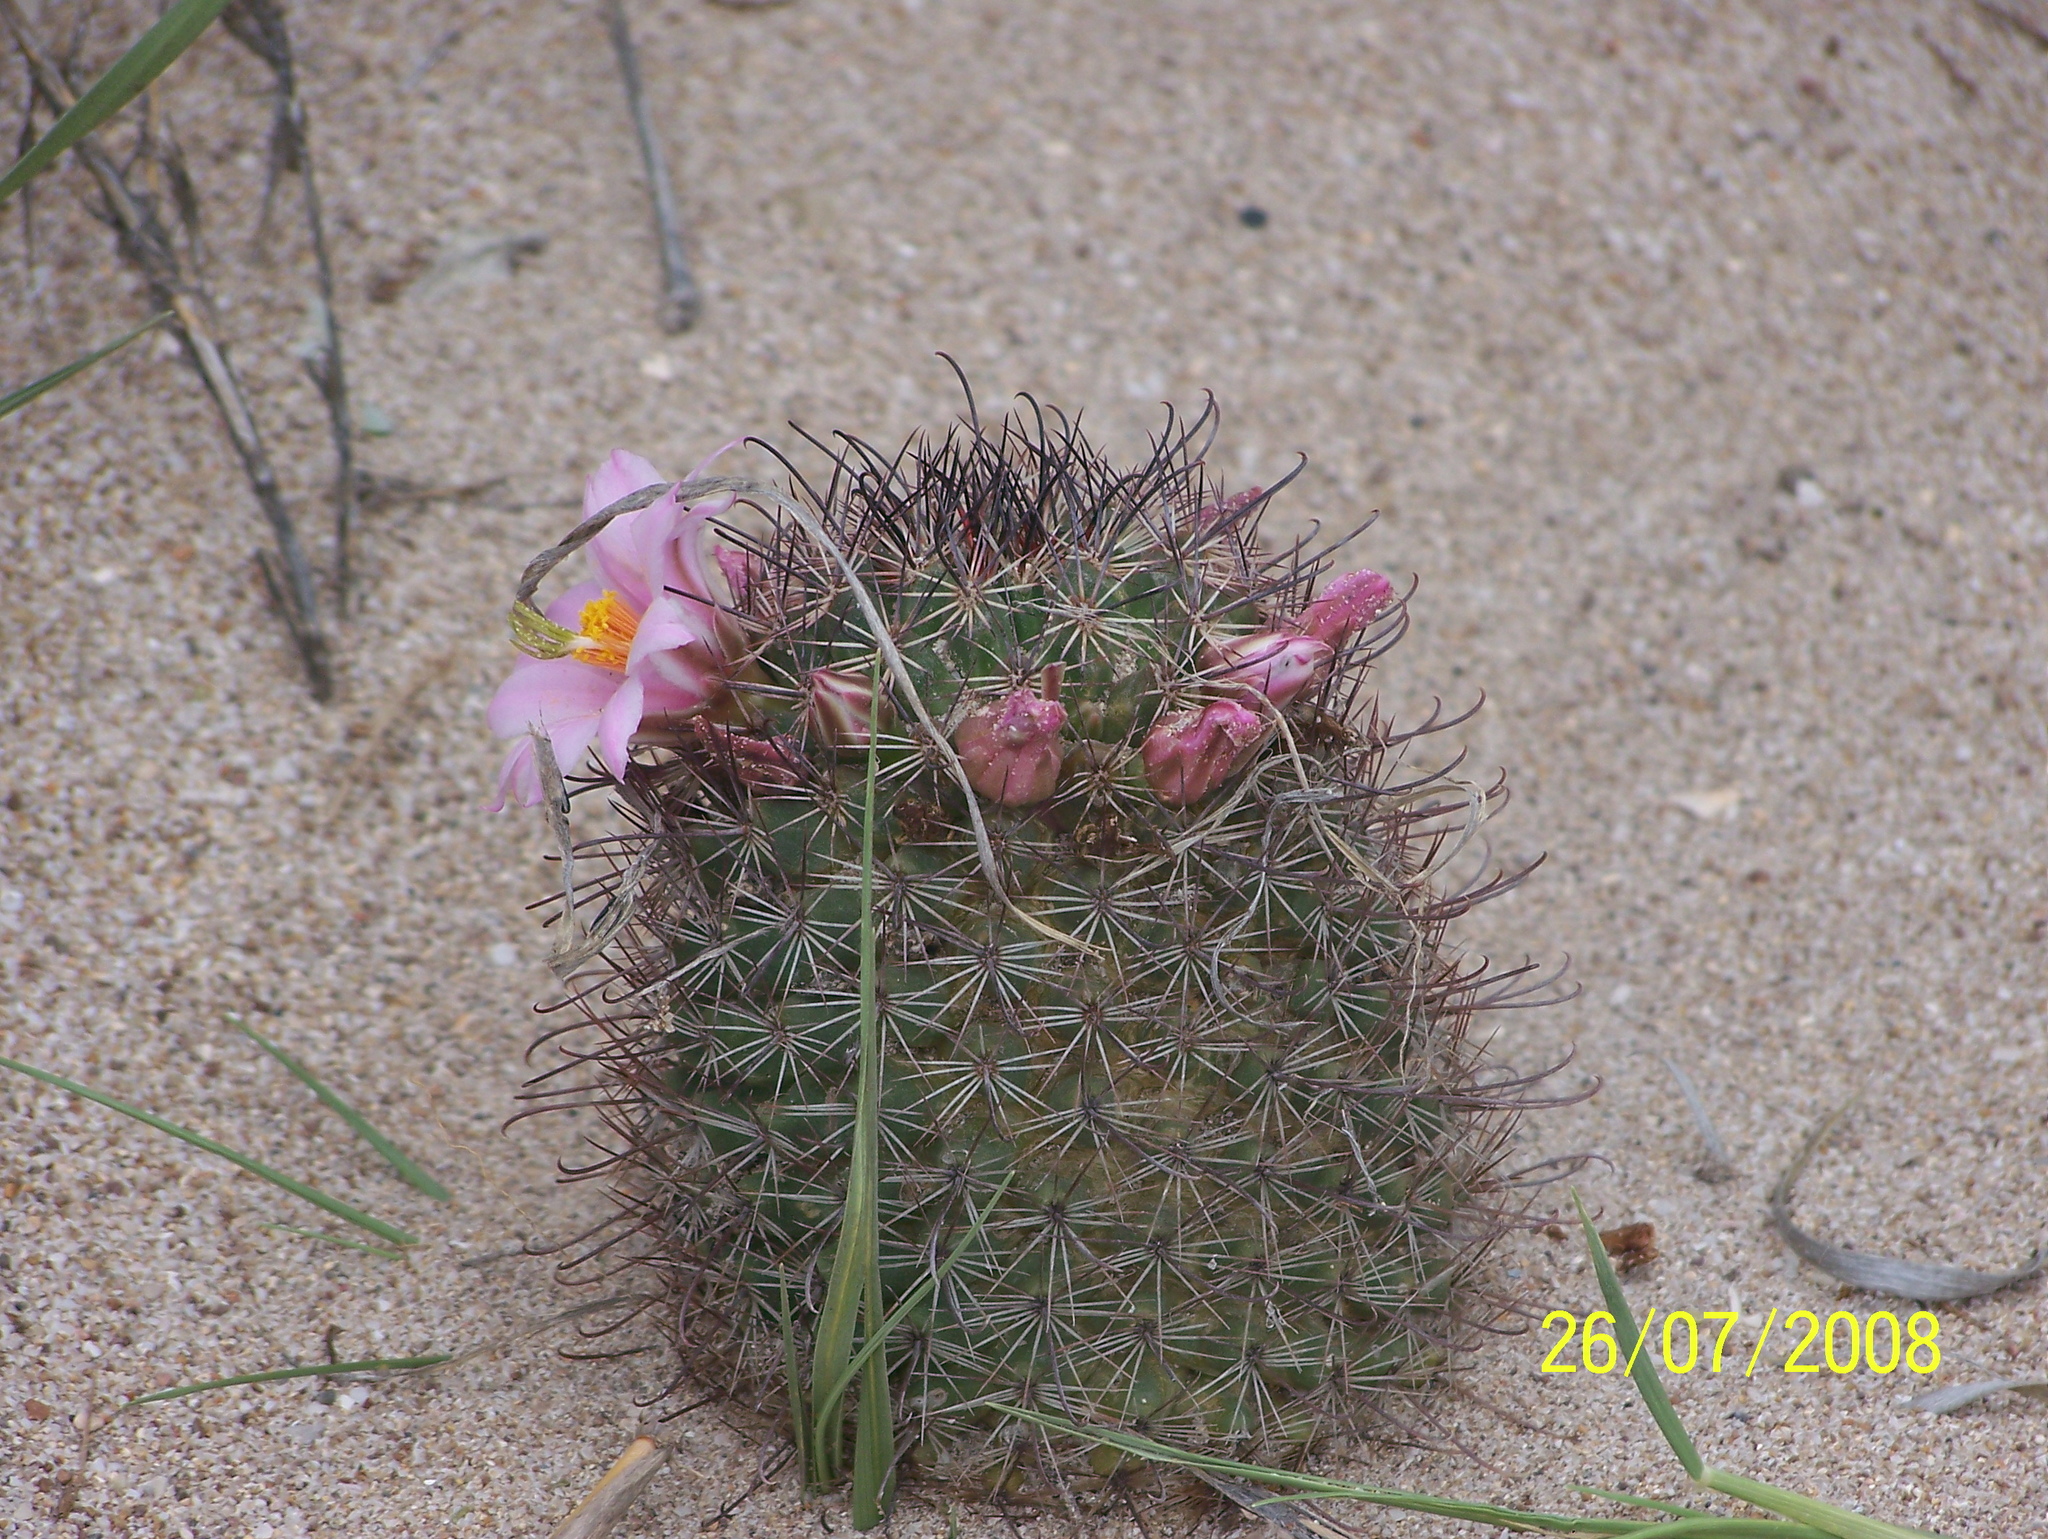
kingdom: Plantae
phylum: Tracheophyta
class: Magnoliopsida
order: Caryophyllales
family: Cactaceae
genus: Cochemiea
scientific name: Cochemiea sheldonii
